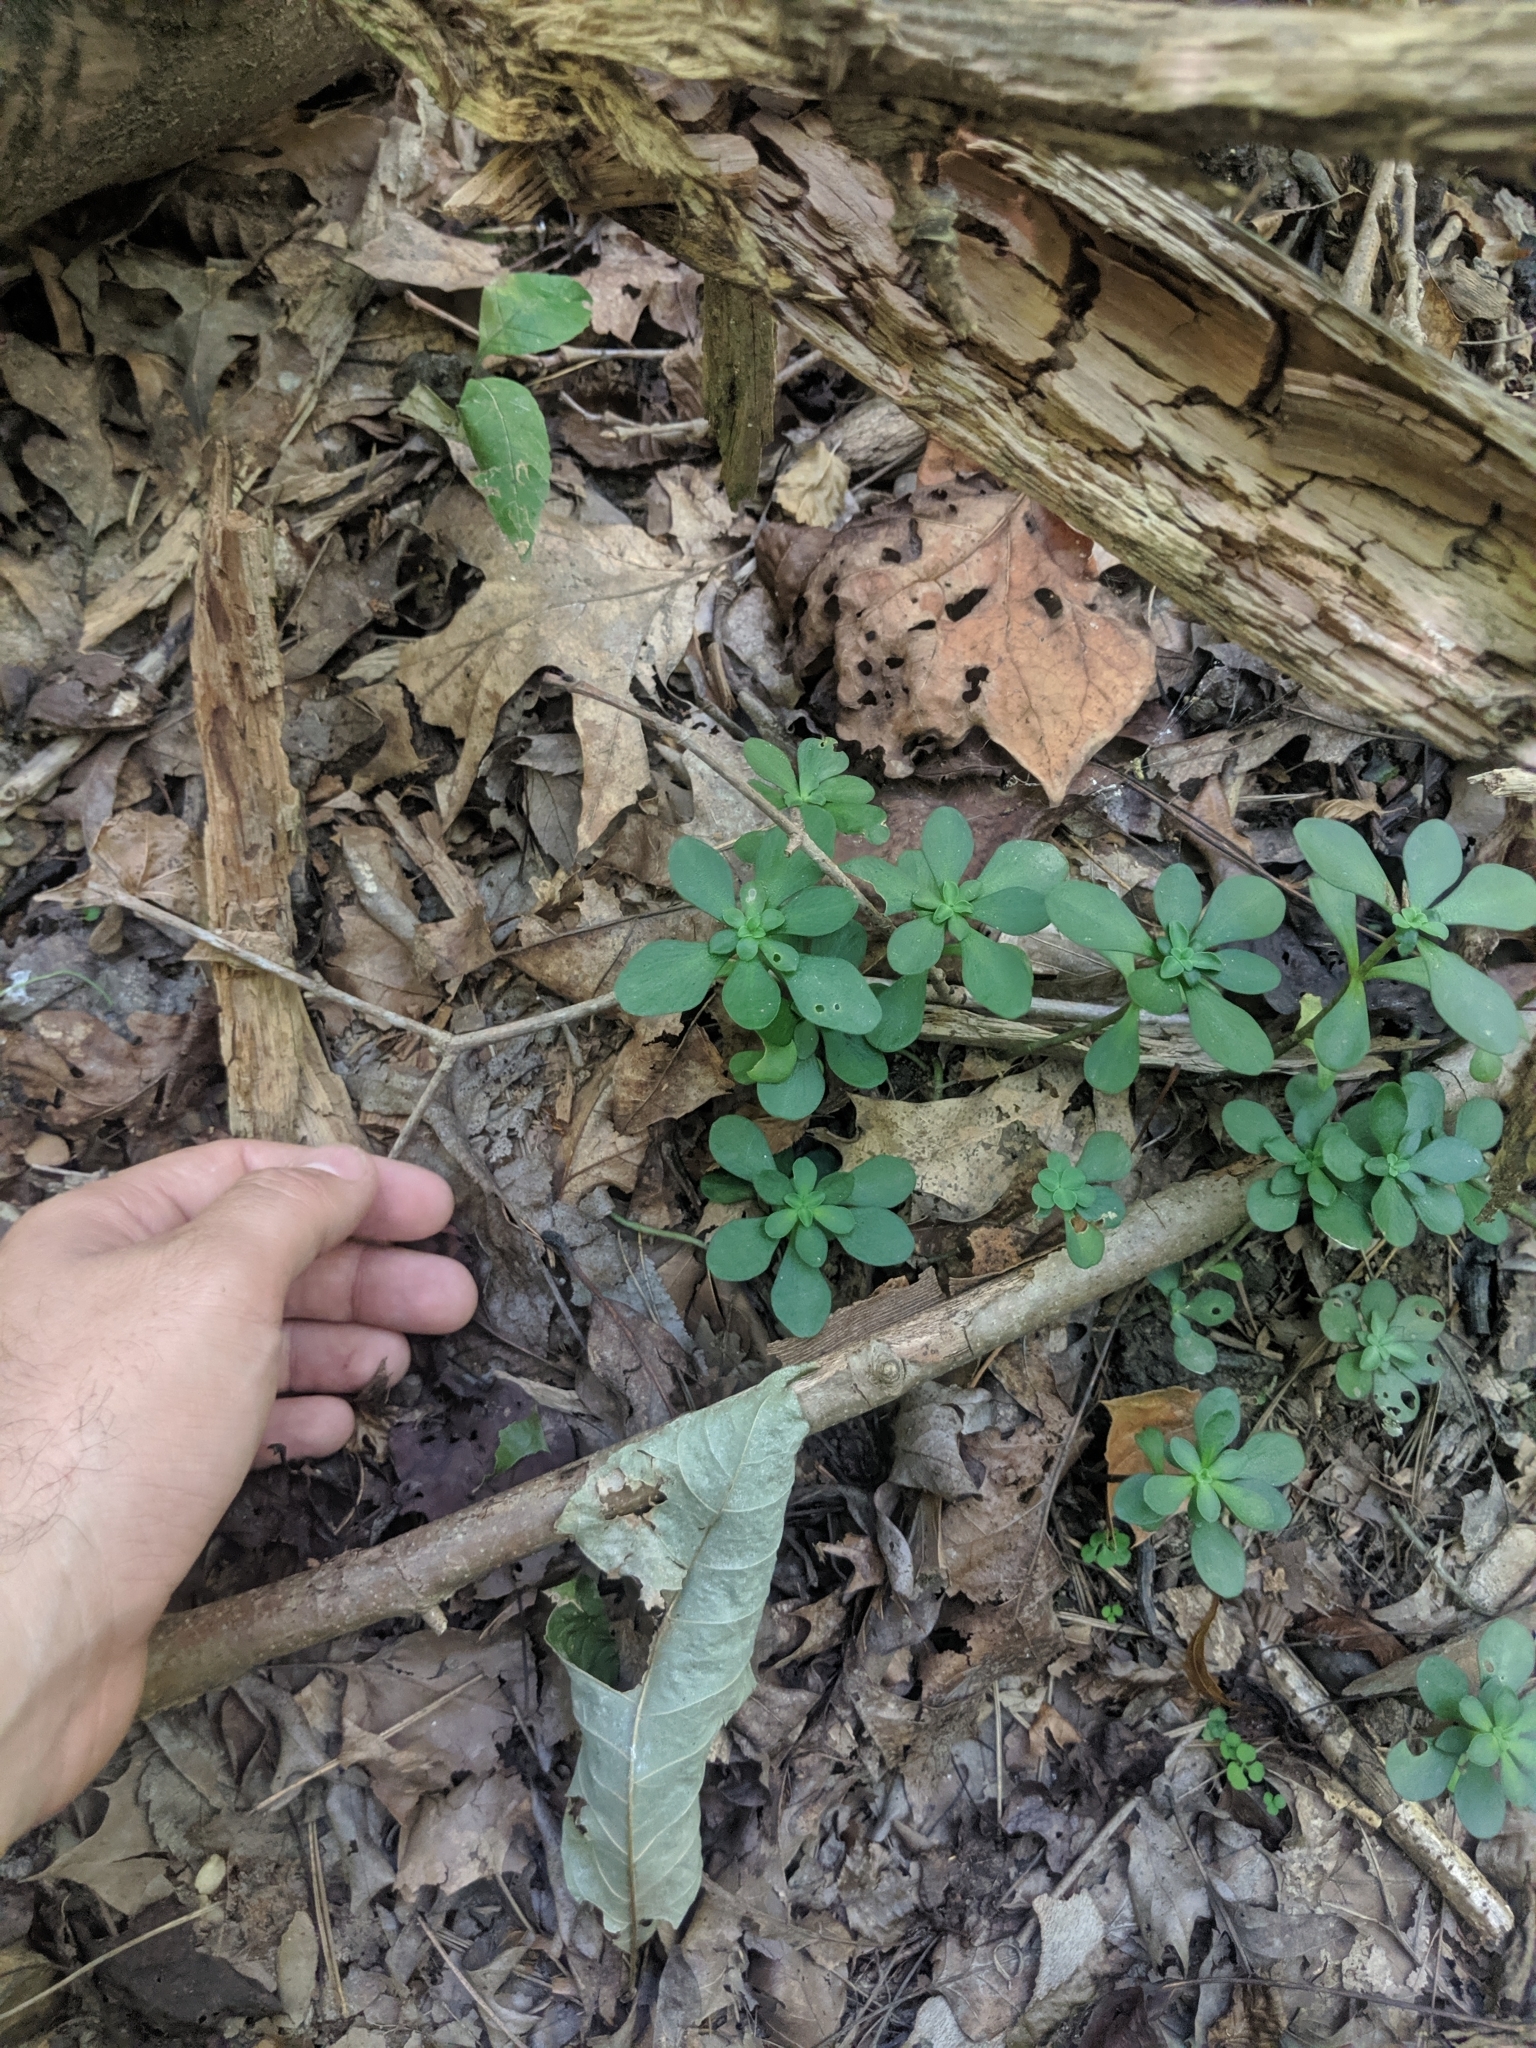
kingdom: Plantae
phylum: Tracheophyta
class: Magnoliopsida
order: Saxifragales
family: Crassulaceae
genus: Sedum
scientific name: Sedum ternatum
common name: Wild stonecrop
